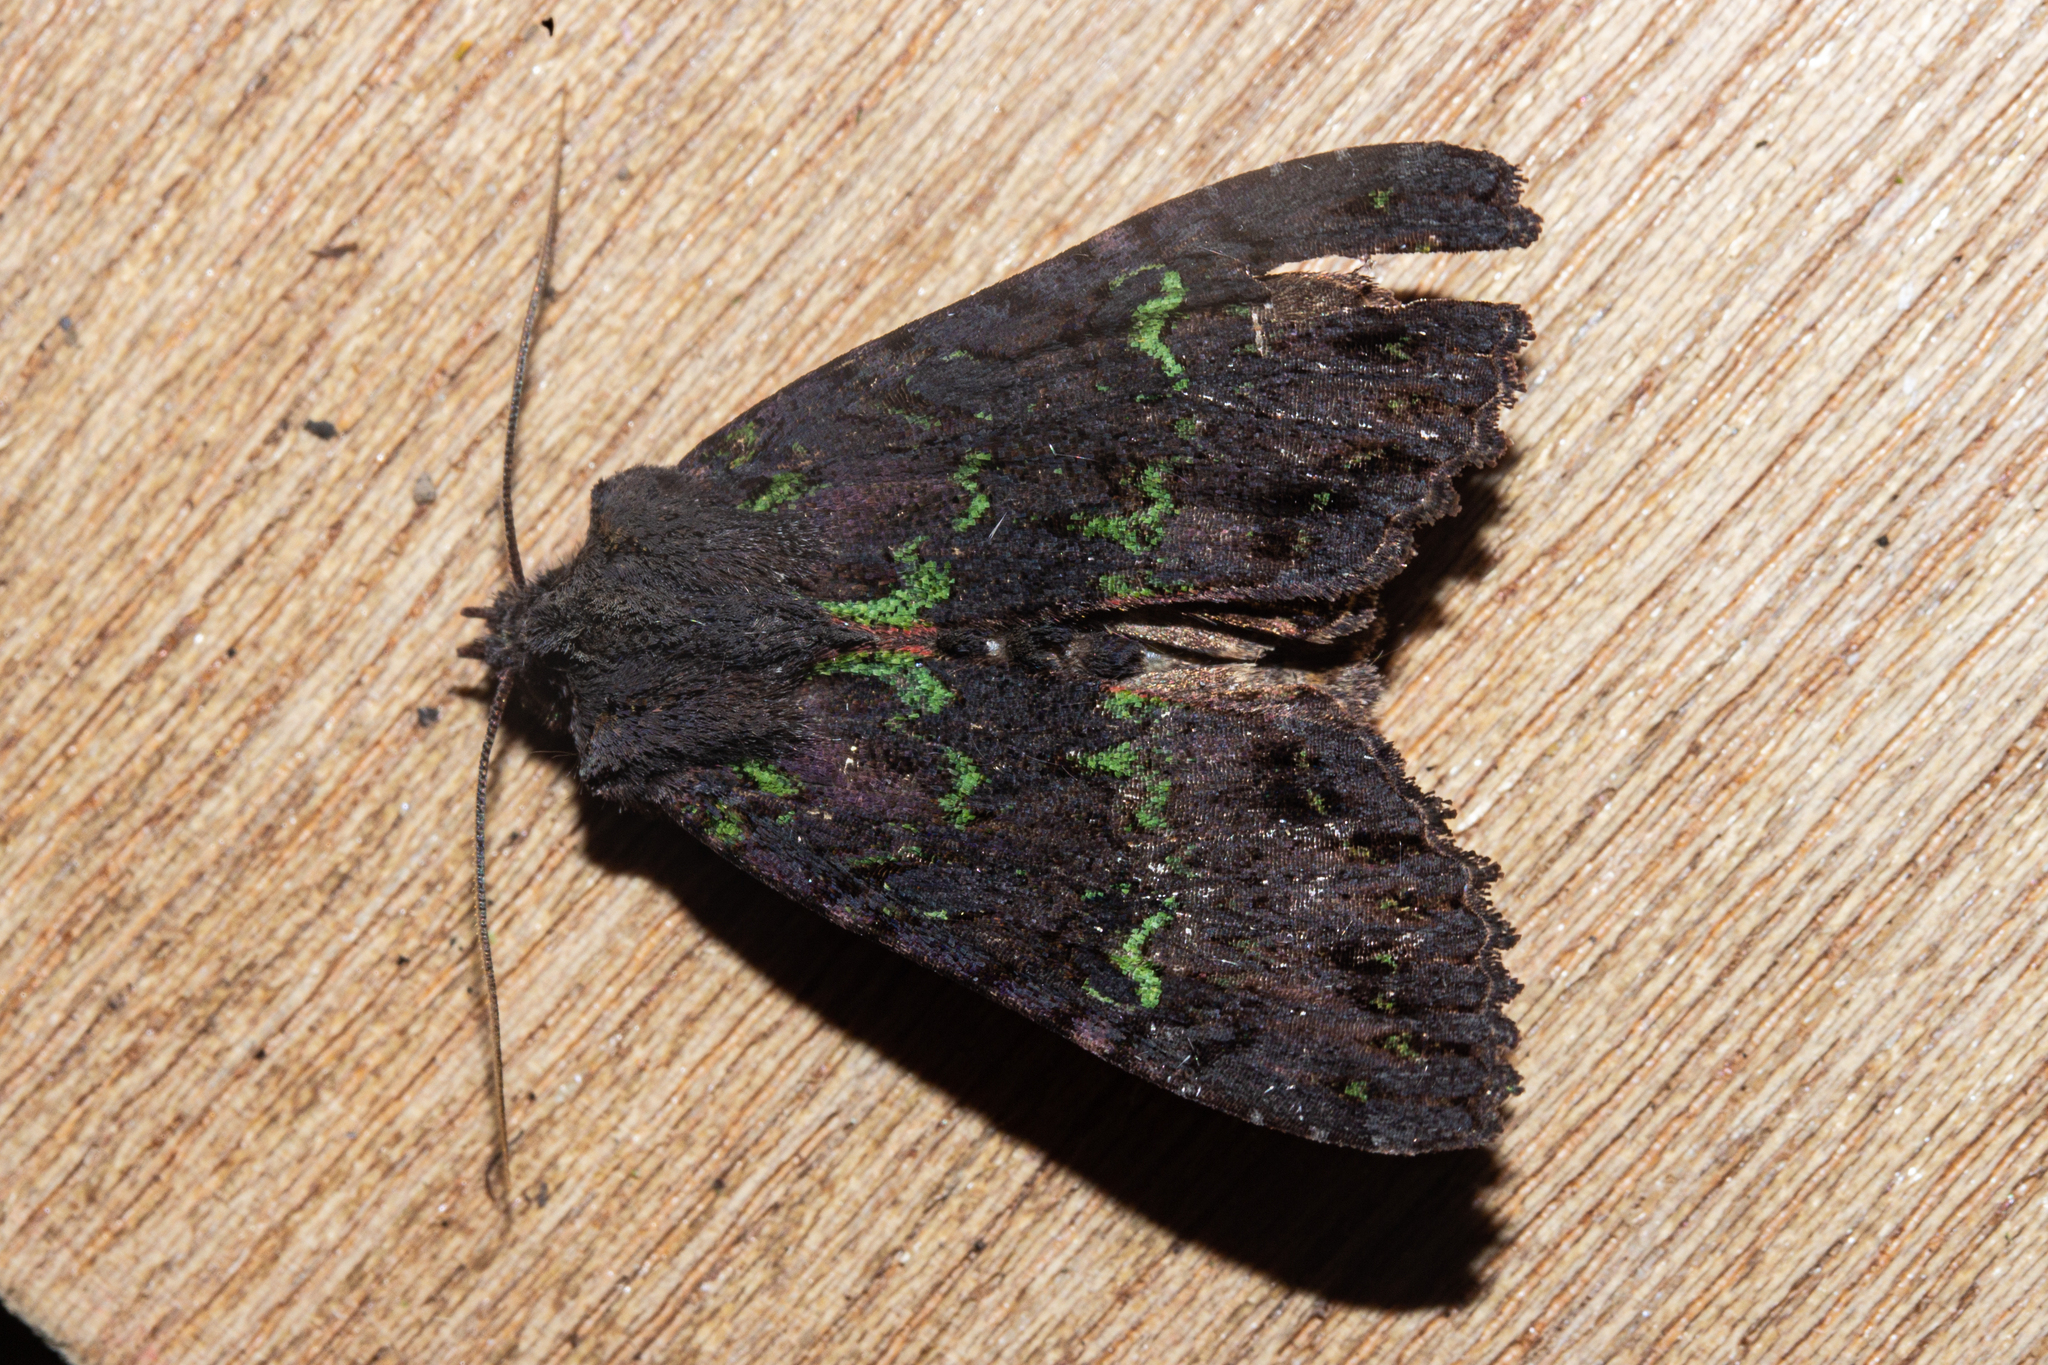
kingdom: Animalia
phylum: Arthropoda
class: Insecta
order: Lepidoptera
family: Noctuidae
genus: Meterana
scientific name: Meterana merope
